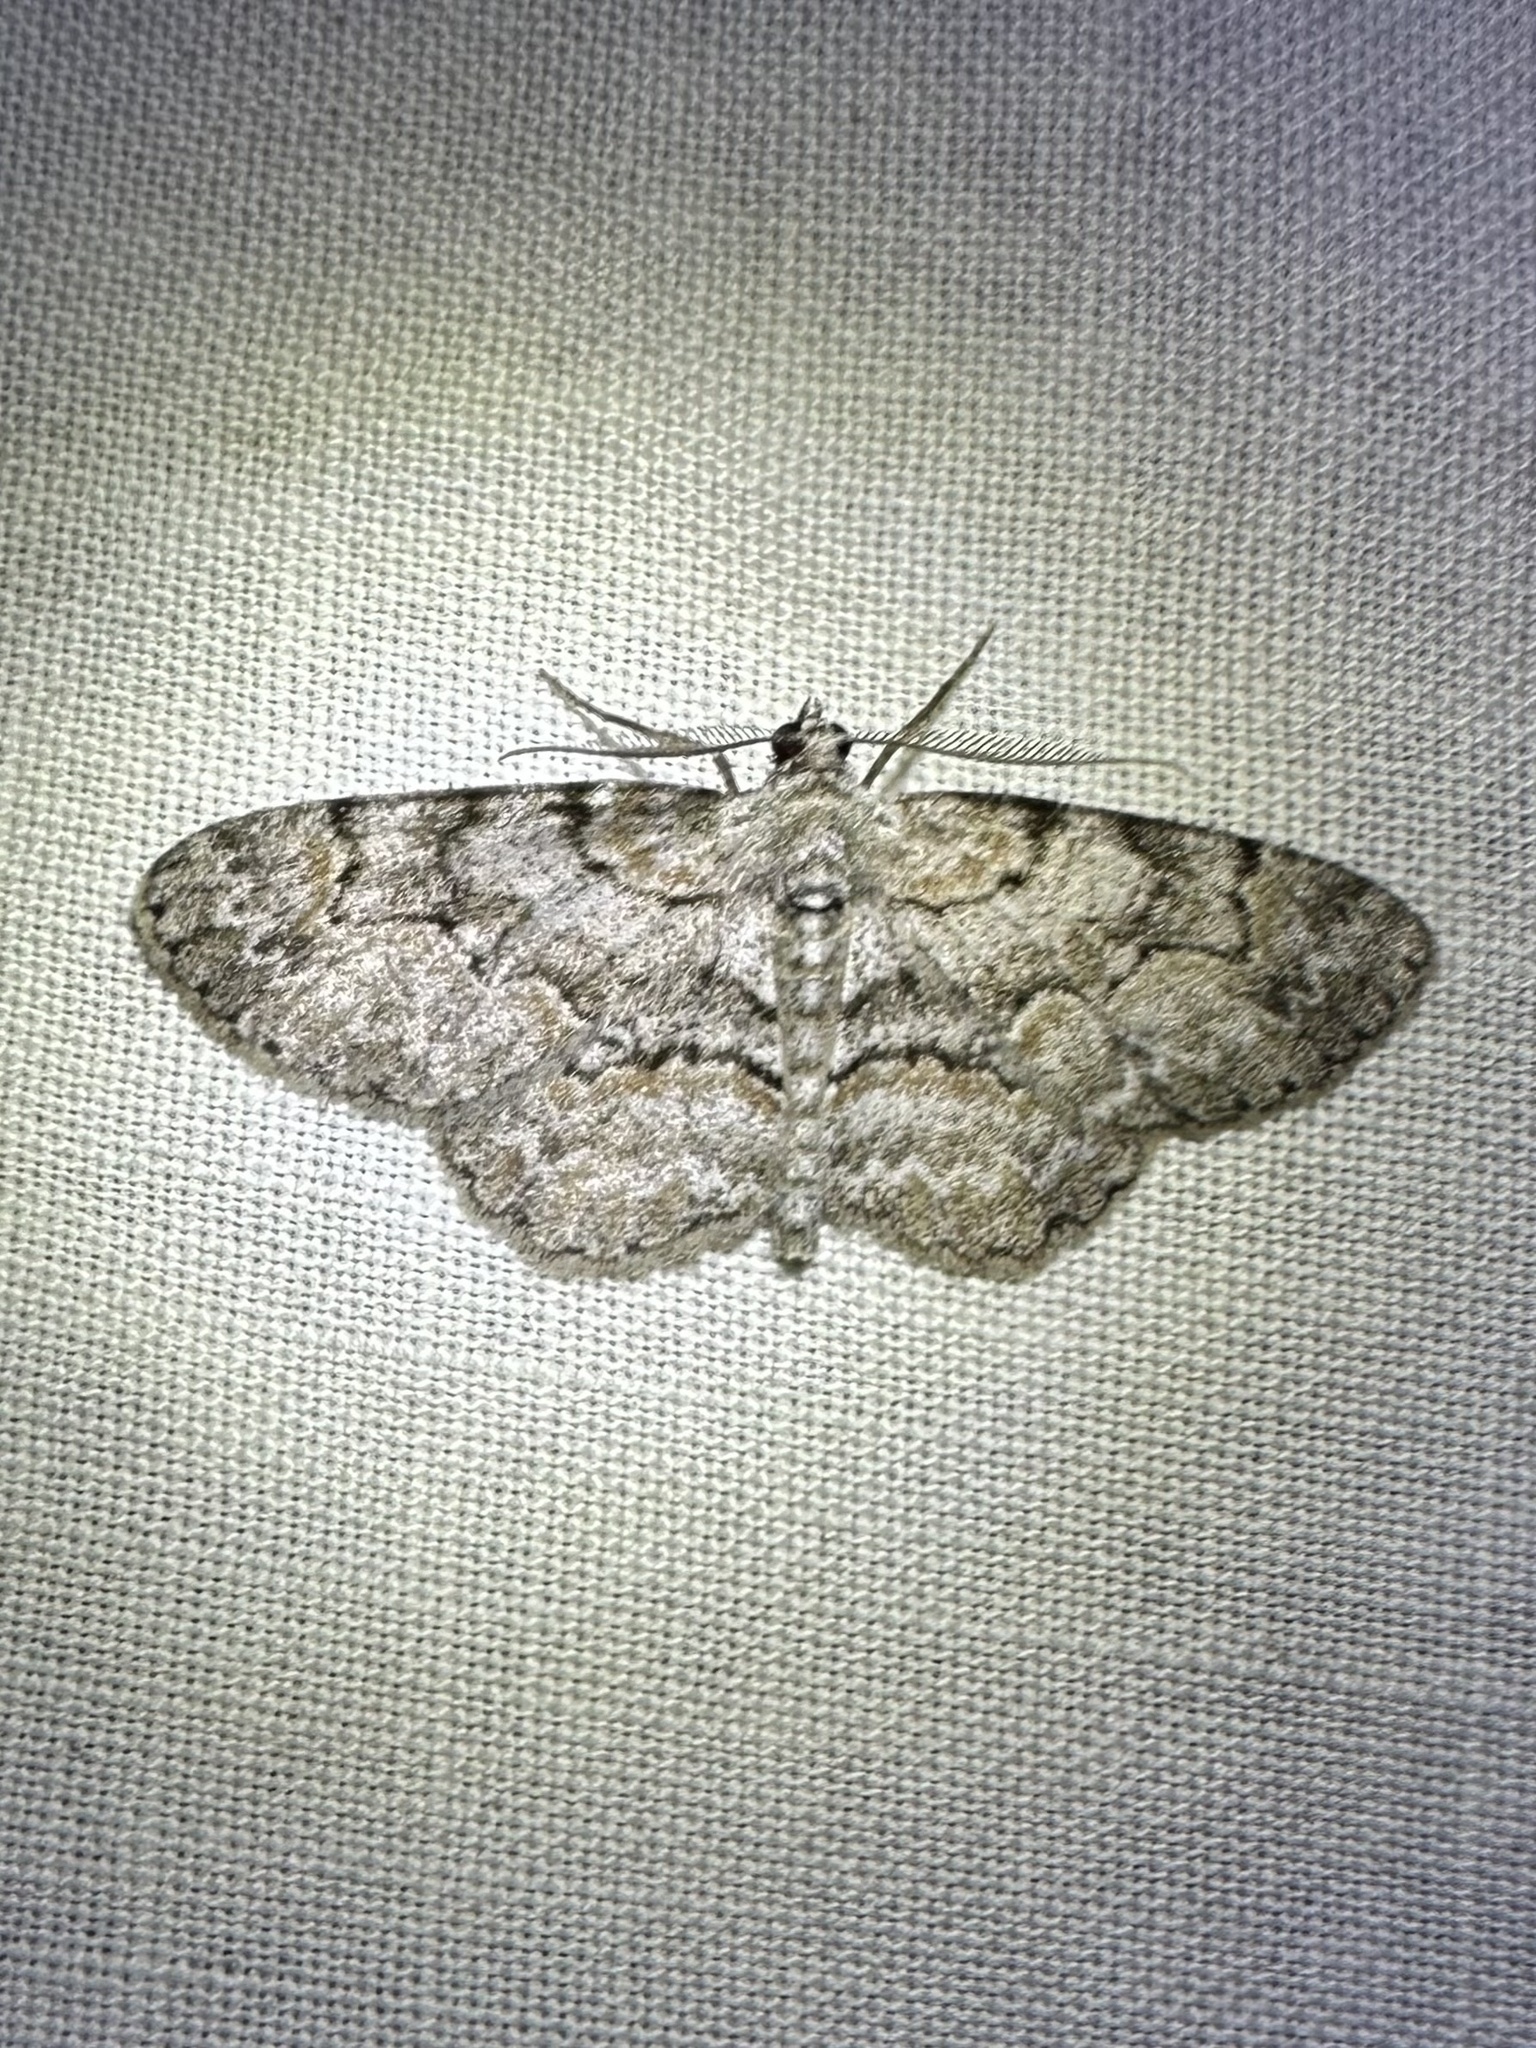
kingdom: Animalia
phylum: Arthropoda
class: Insecta
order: Lepidoptera
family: Geometridae
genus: Iridopsis
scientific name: Iridopsis ephyraria
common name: Pale-winged gray
